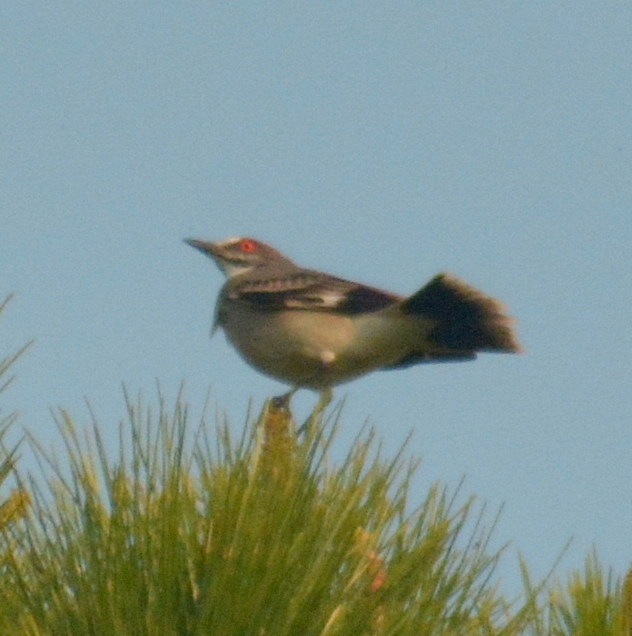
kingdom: Animalia
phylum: Chordata
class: Aves
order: Passeriformes
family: Tyrannidae
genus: Xolmis
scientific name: Xolmis cinereus
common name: Grey monjita
